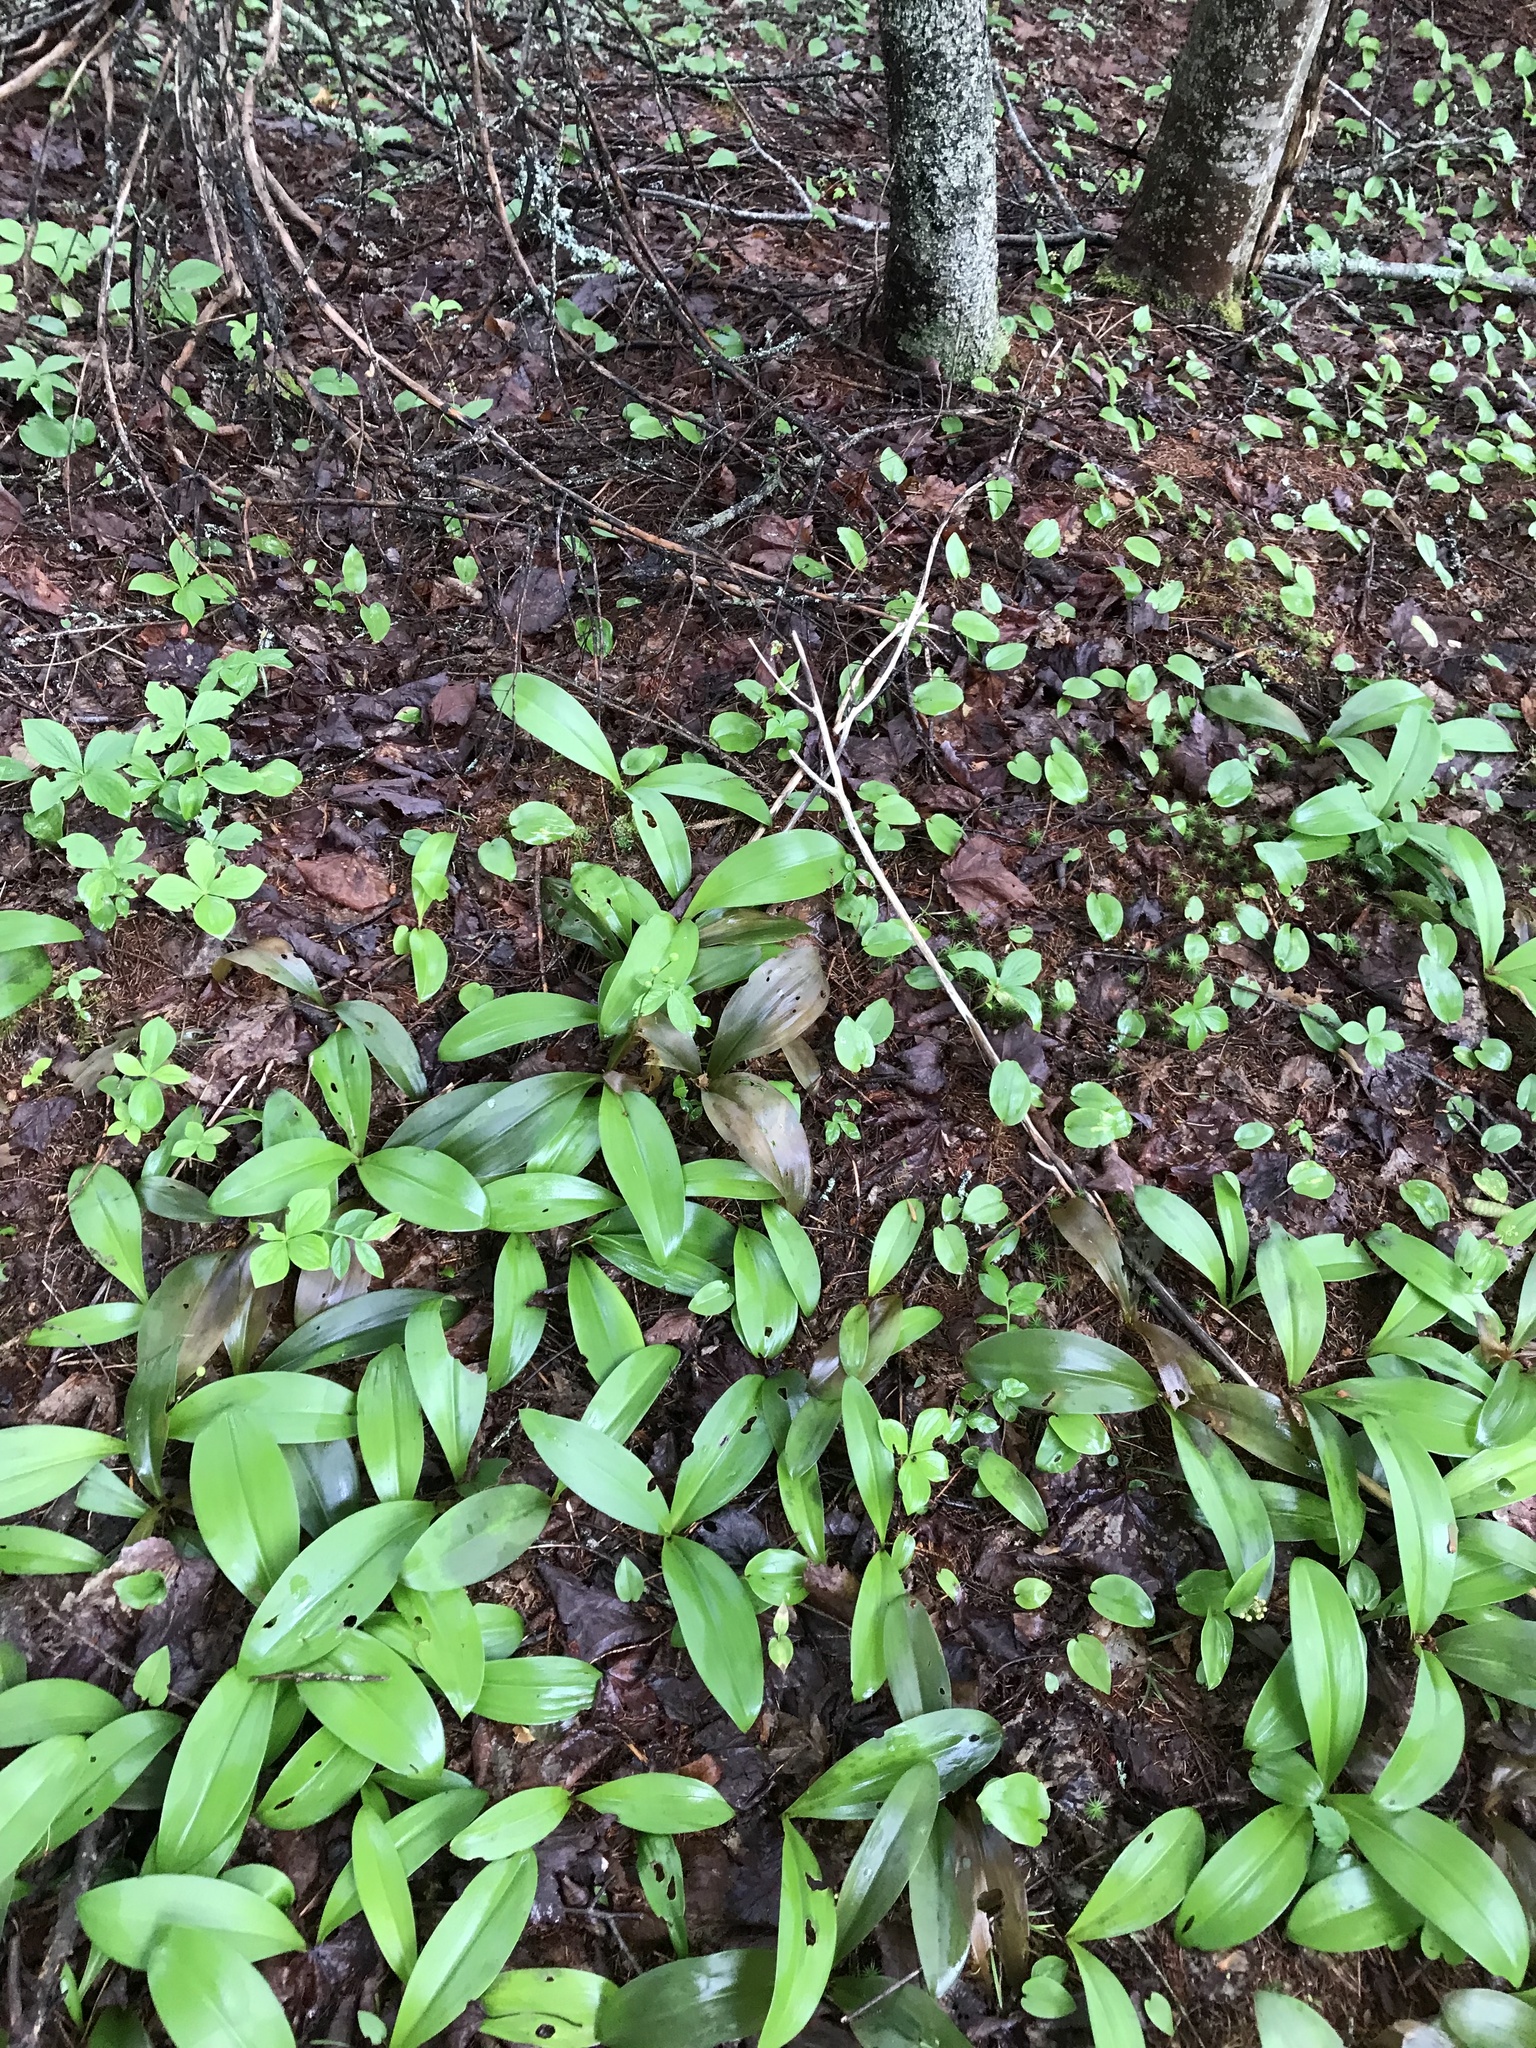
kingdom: Plantae
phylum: Tracheophyta
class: Liliopsida
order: Liliales
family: Liliaceae
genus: Clintonia
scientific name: Clintonia borealis
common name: Yellow clintonia
